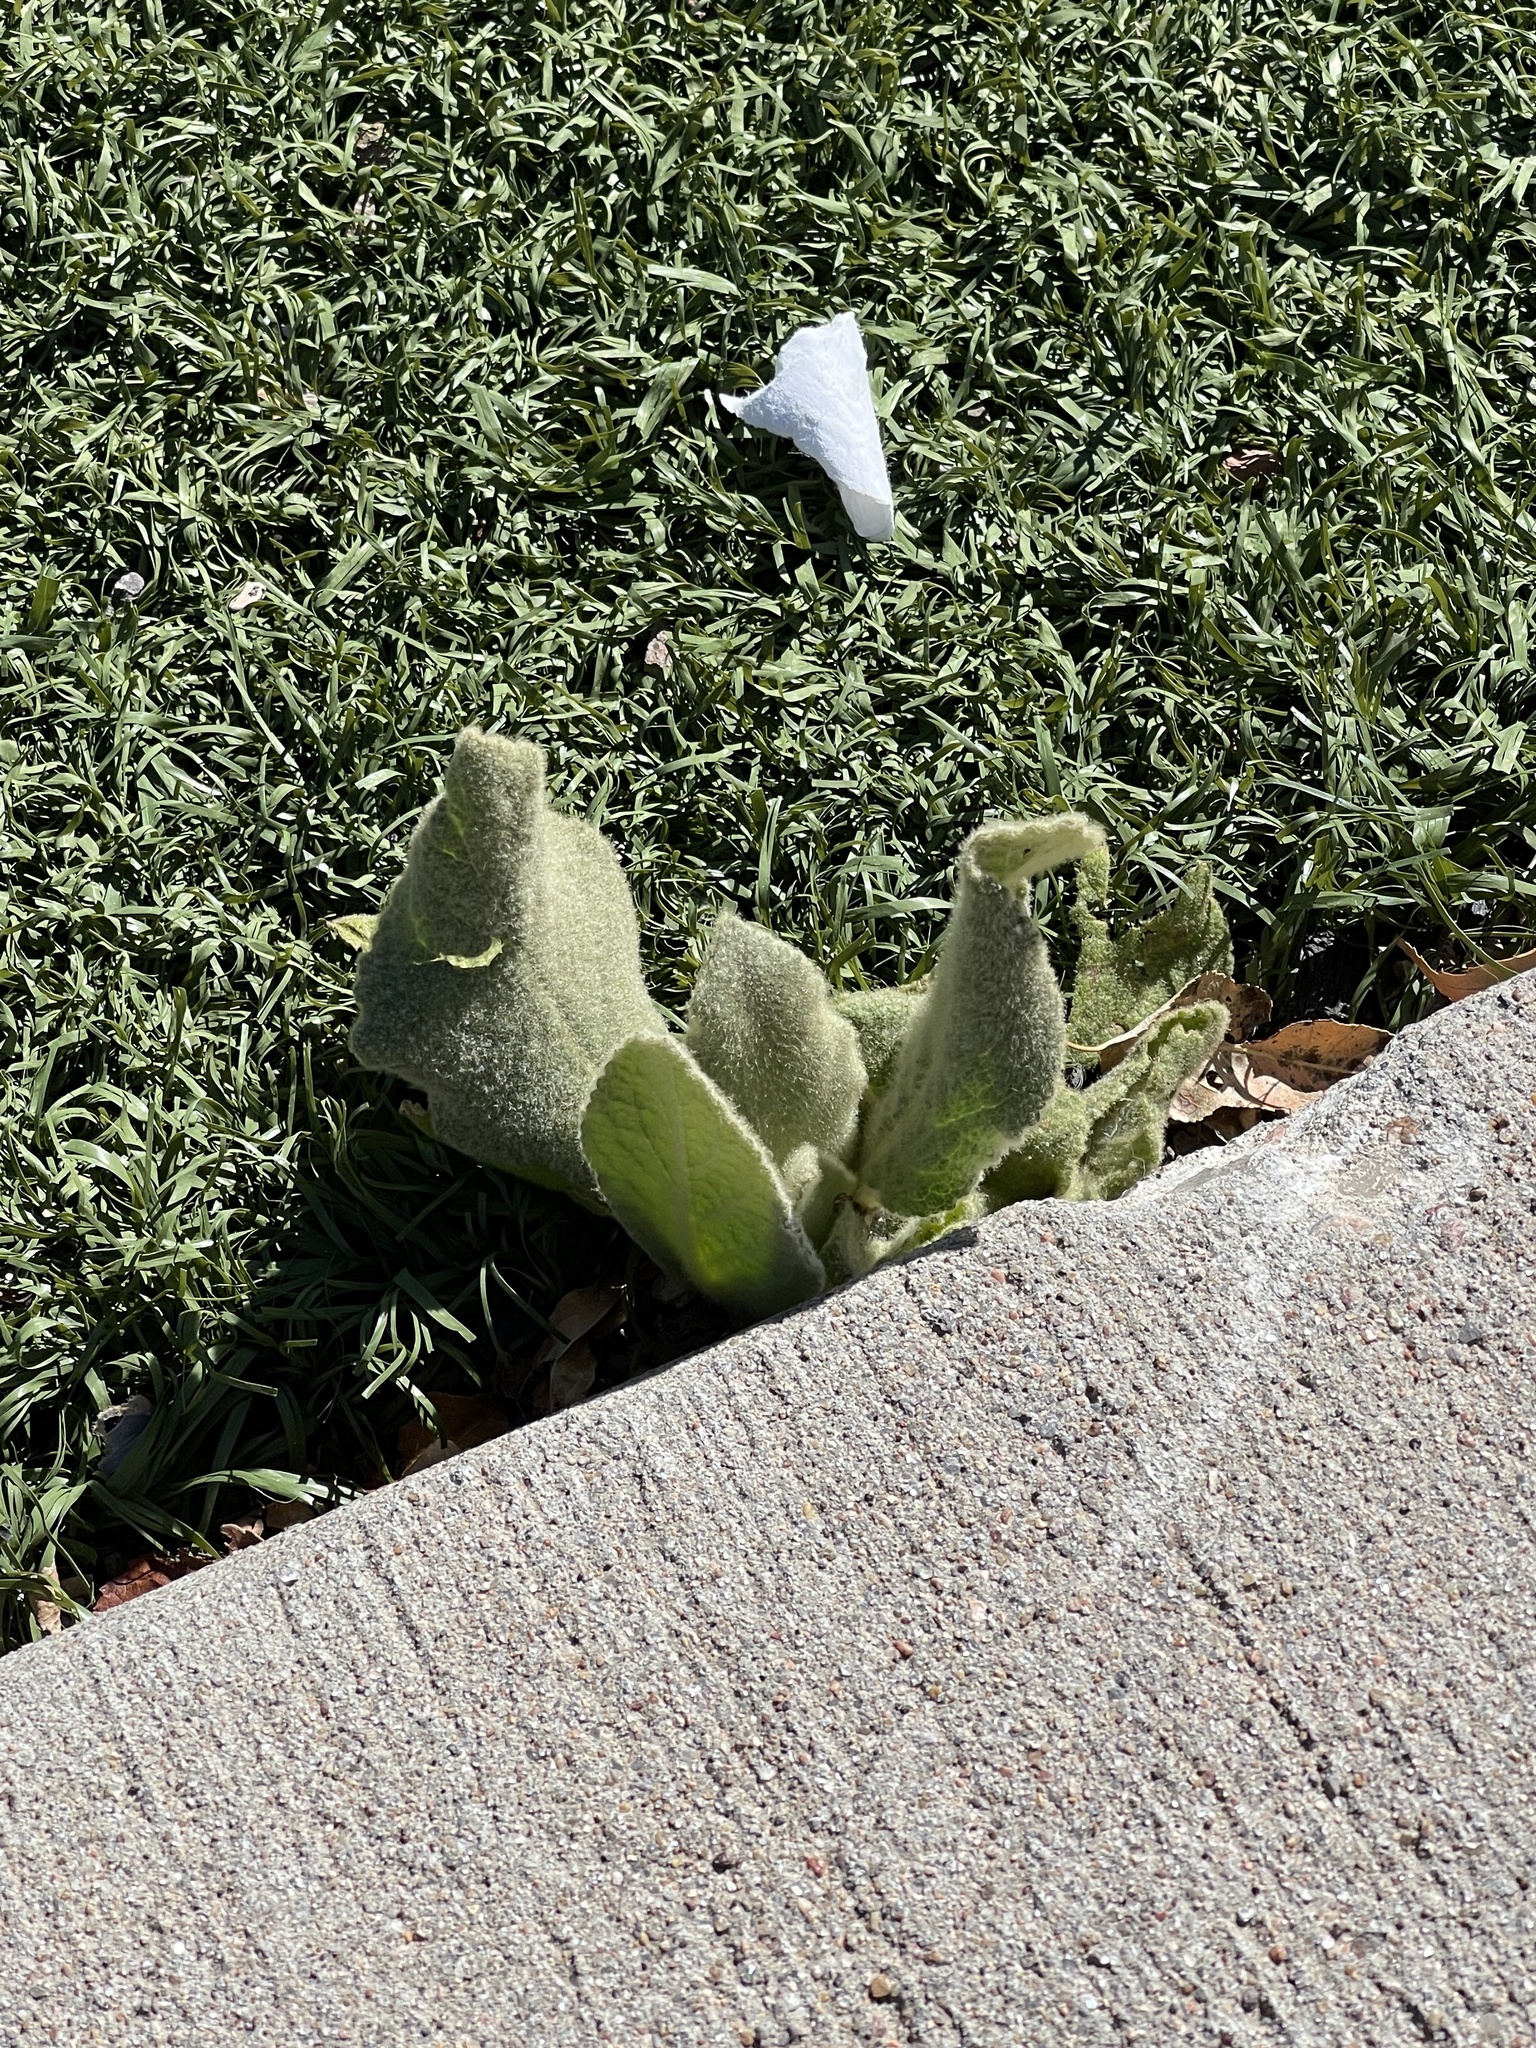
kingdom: Plantae
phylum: Tracheophyta
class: Magnoliopsida
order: Lamiales
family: Scrophulariaceae
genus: Verbascum
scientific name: Verbascum thapsus
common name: Common mullein
